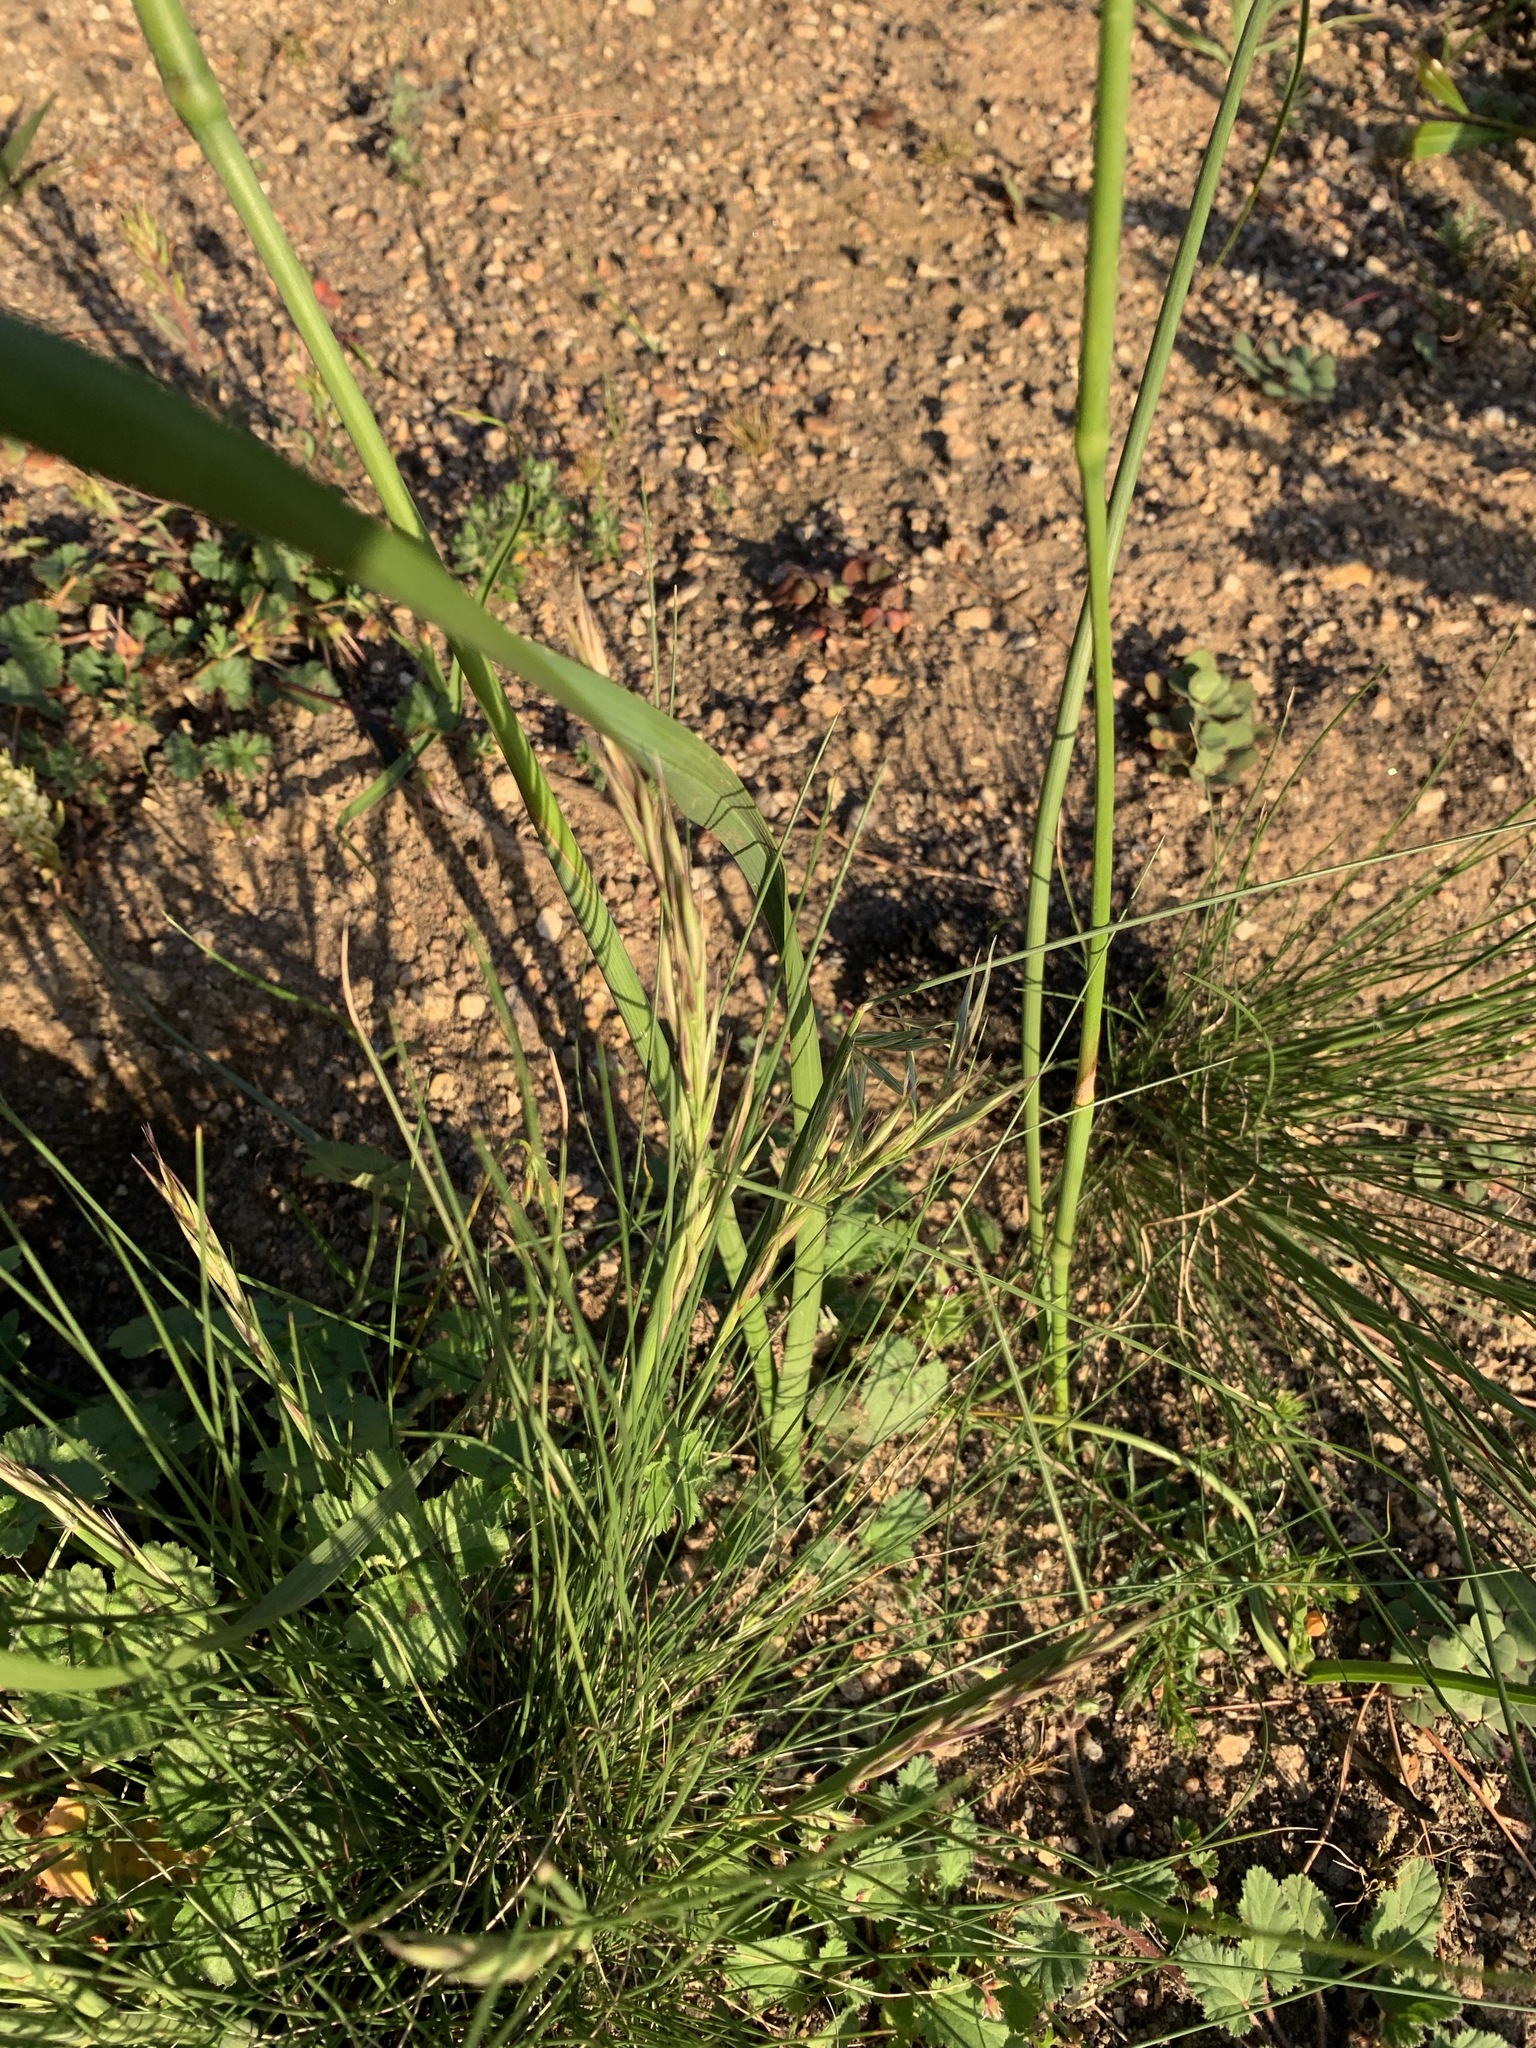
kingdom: Plantae
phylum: Tracheophyta
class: Liliopsida
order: Asparagales
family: Iridaceae
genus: Moraea
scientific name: Moraea bellendenii
